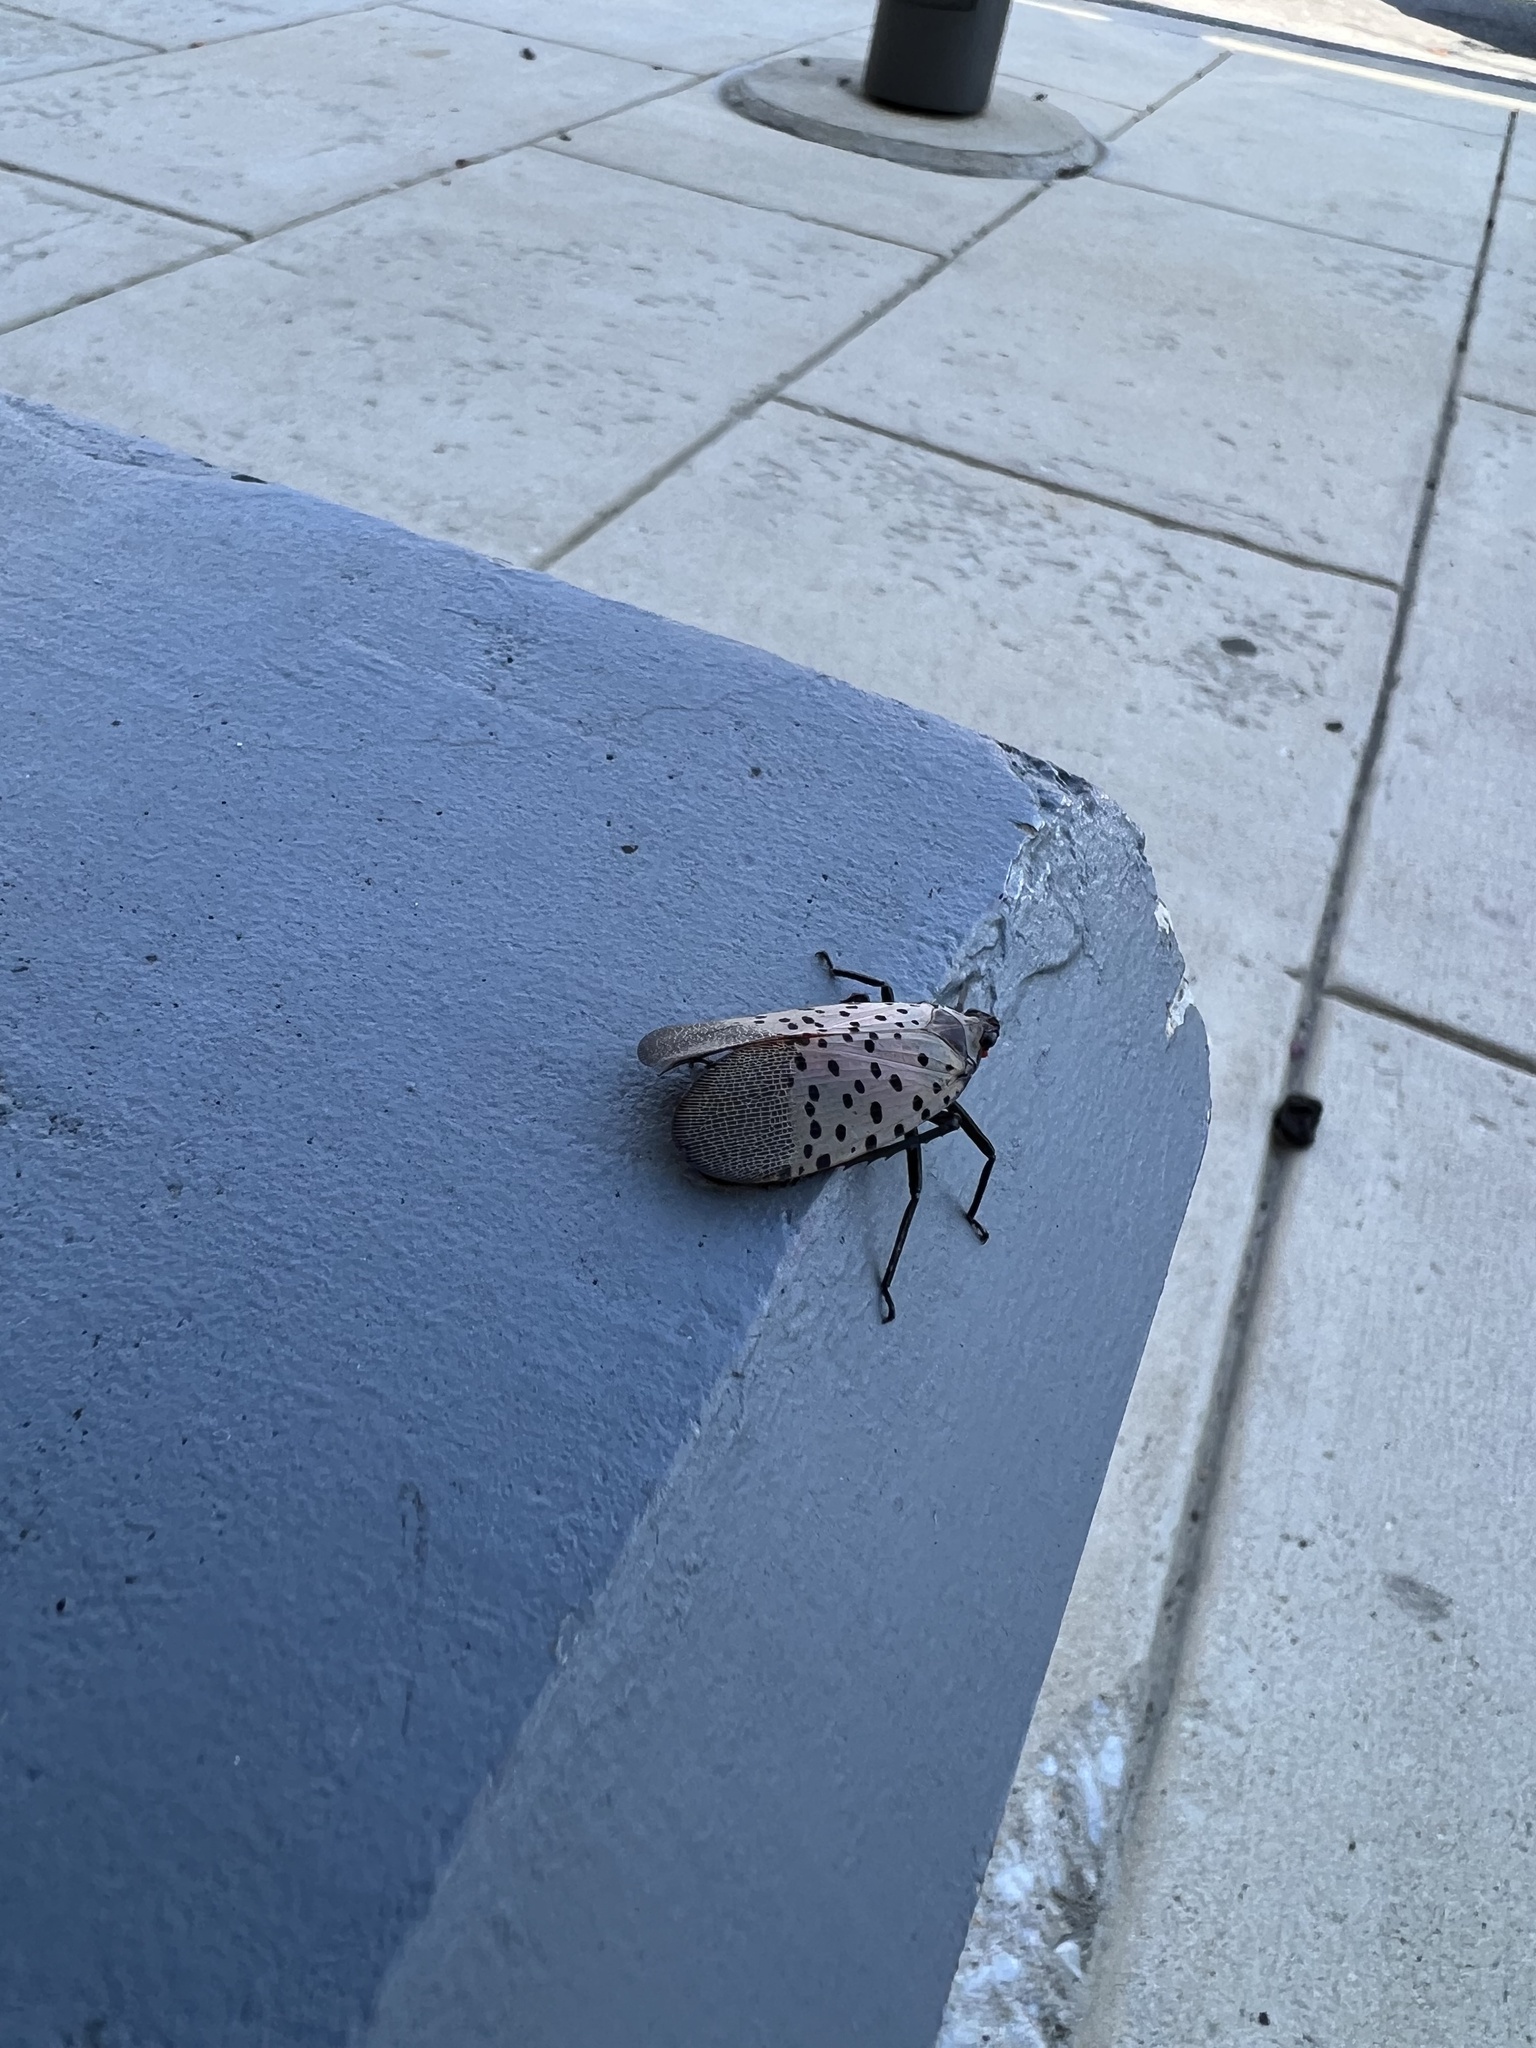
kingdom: Animalia
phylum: Arthropoda
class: Insecta
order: Hemiptera
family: Fulgoridae
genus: Lycorma
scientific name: Lycorma delicatula
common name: Spotted lanternfly
